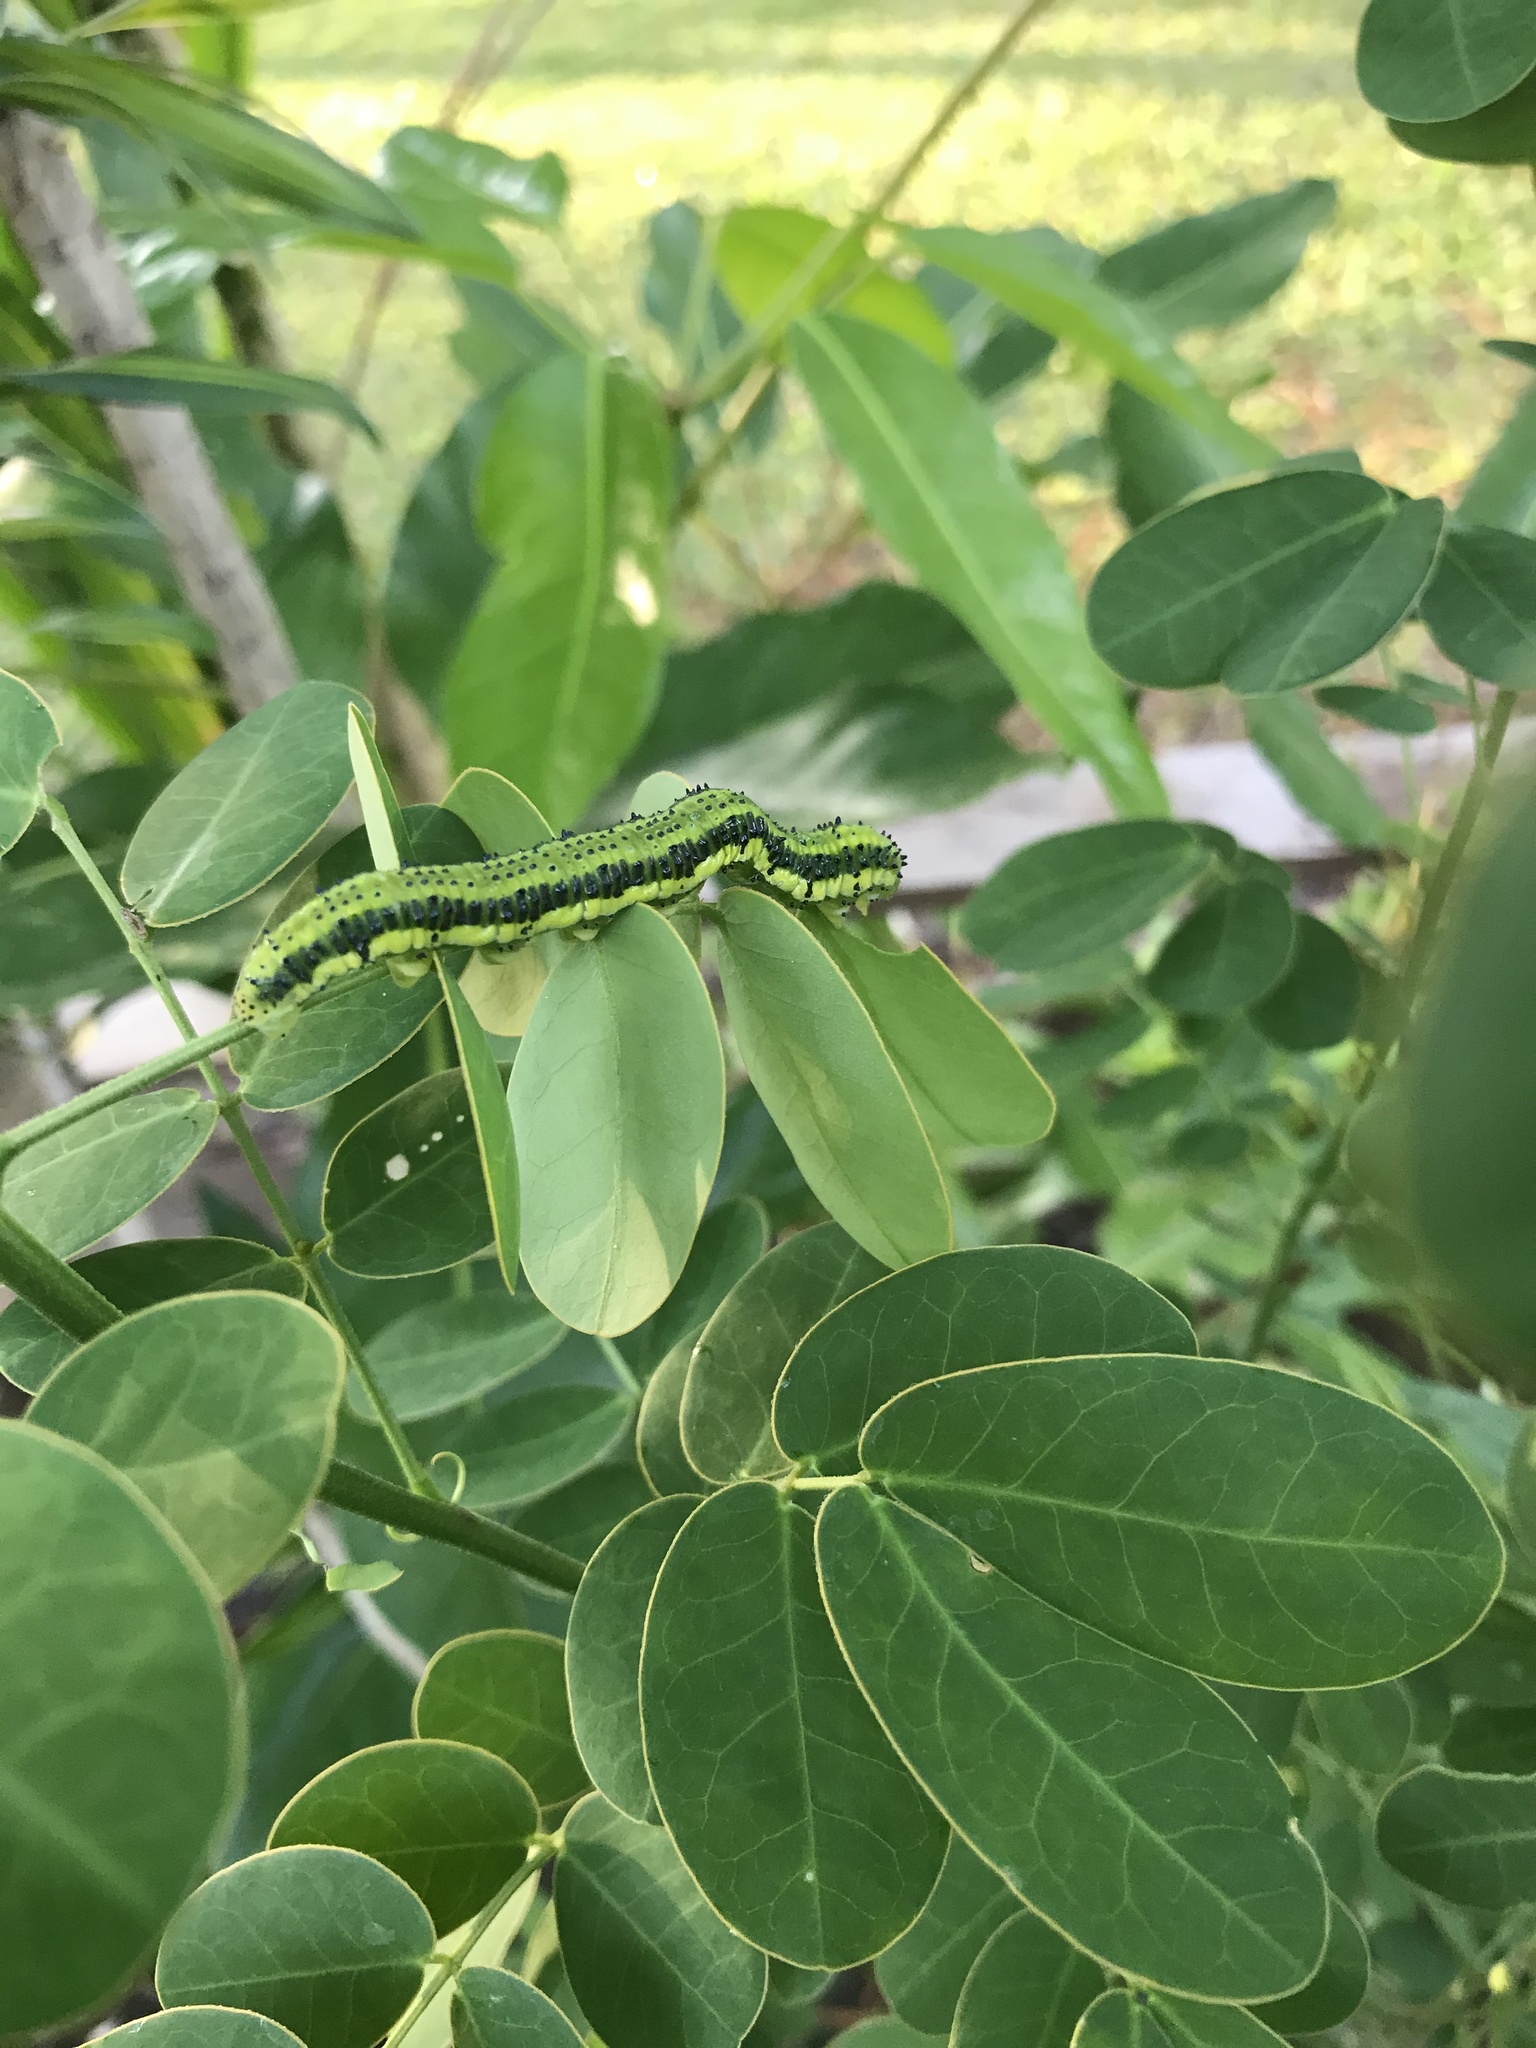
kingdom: Animalia
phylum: Arthropoda
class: Insecta
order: Lepidoptera
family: Pieridae
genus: Phoebis
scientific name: Phoebis philea
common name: Orange-barred giant sulphur
